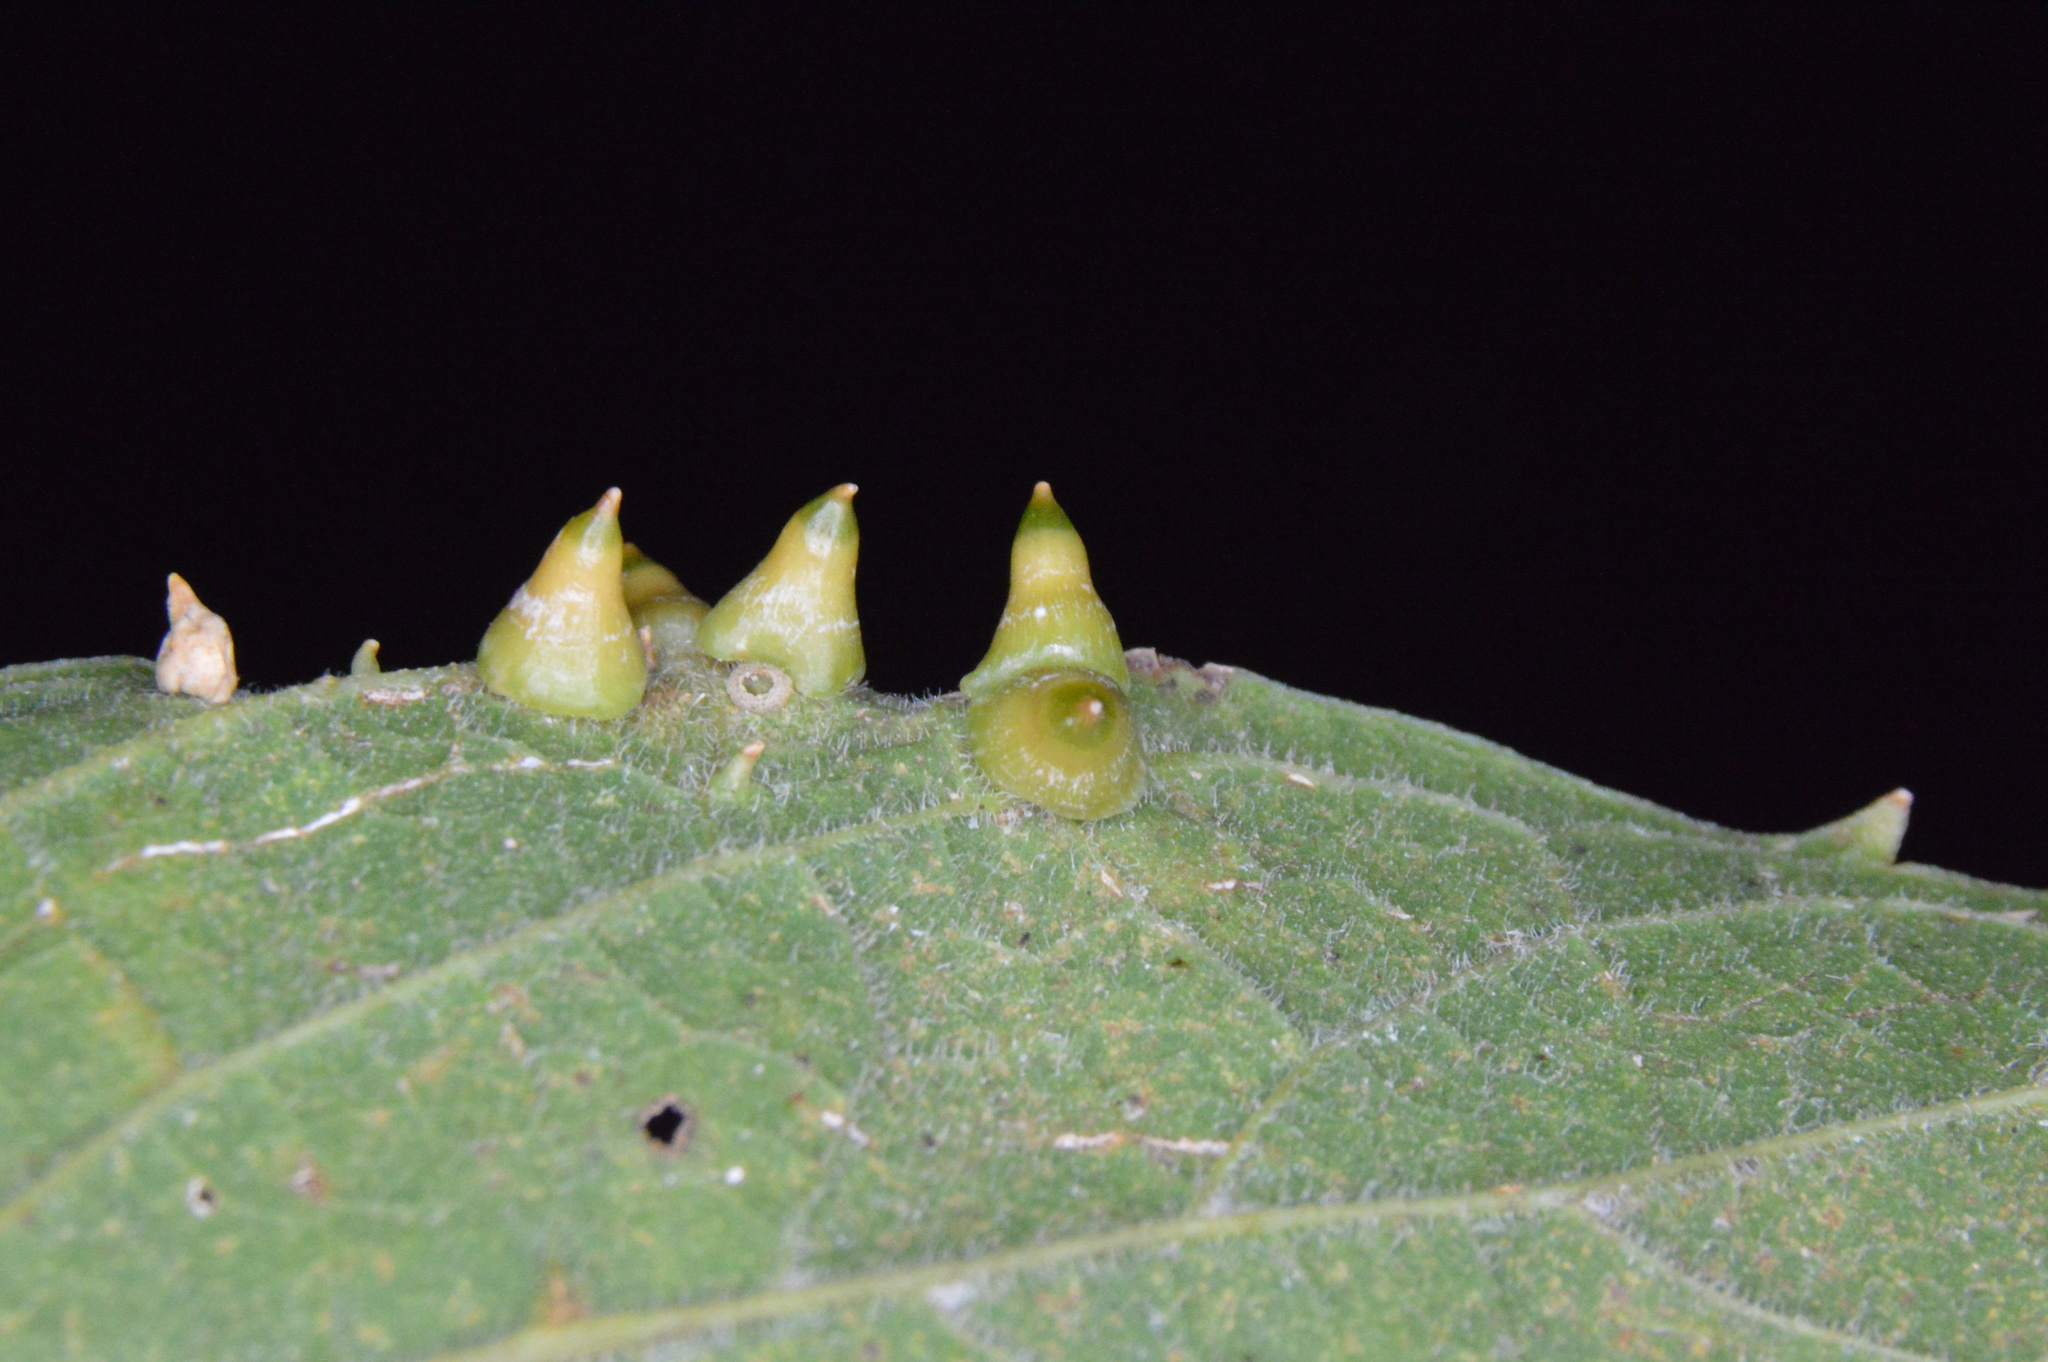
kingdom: Animalia
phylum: Arthropoda
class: Insecta
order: Diptera
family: Cecidomyiidae
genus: Celticecis
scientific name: Celticecis spiniformis
